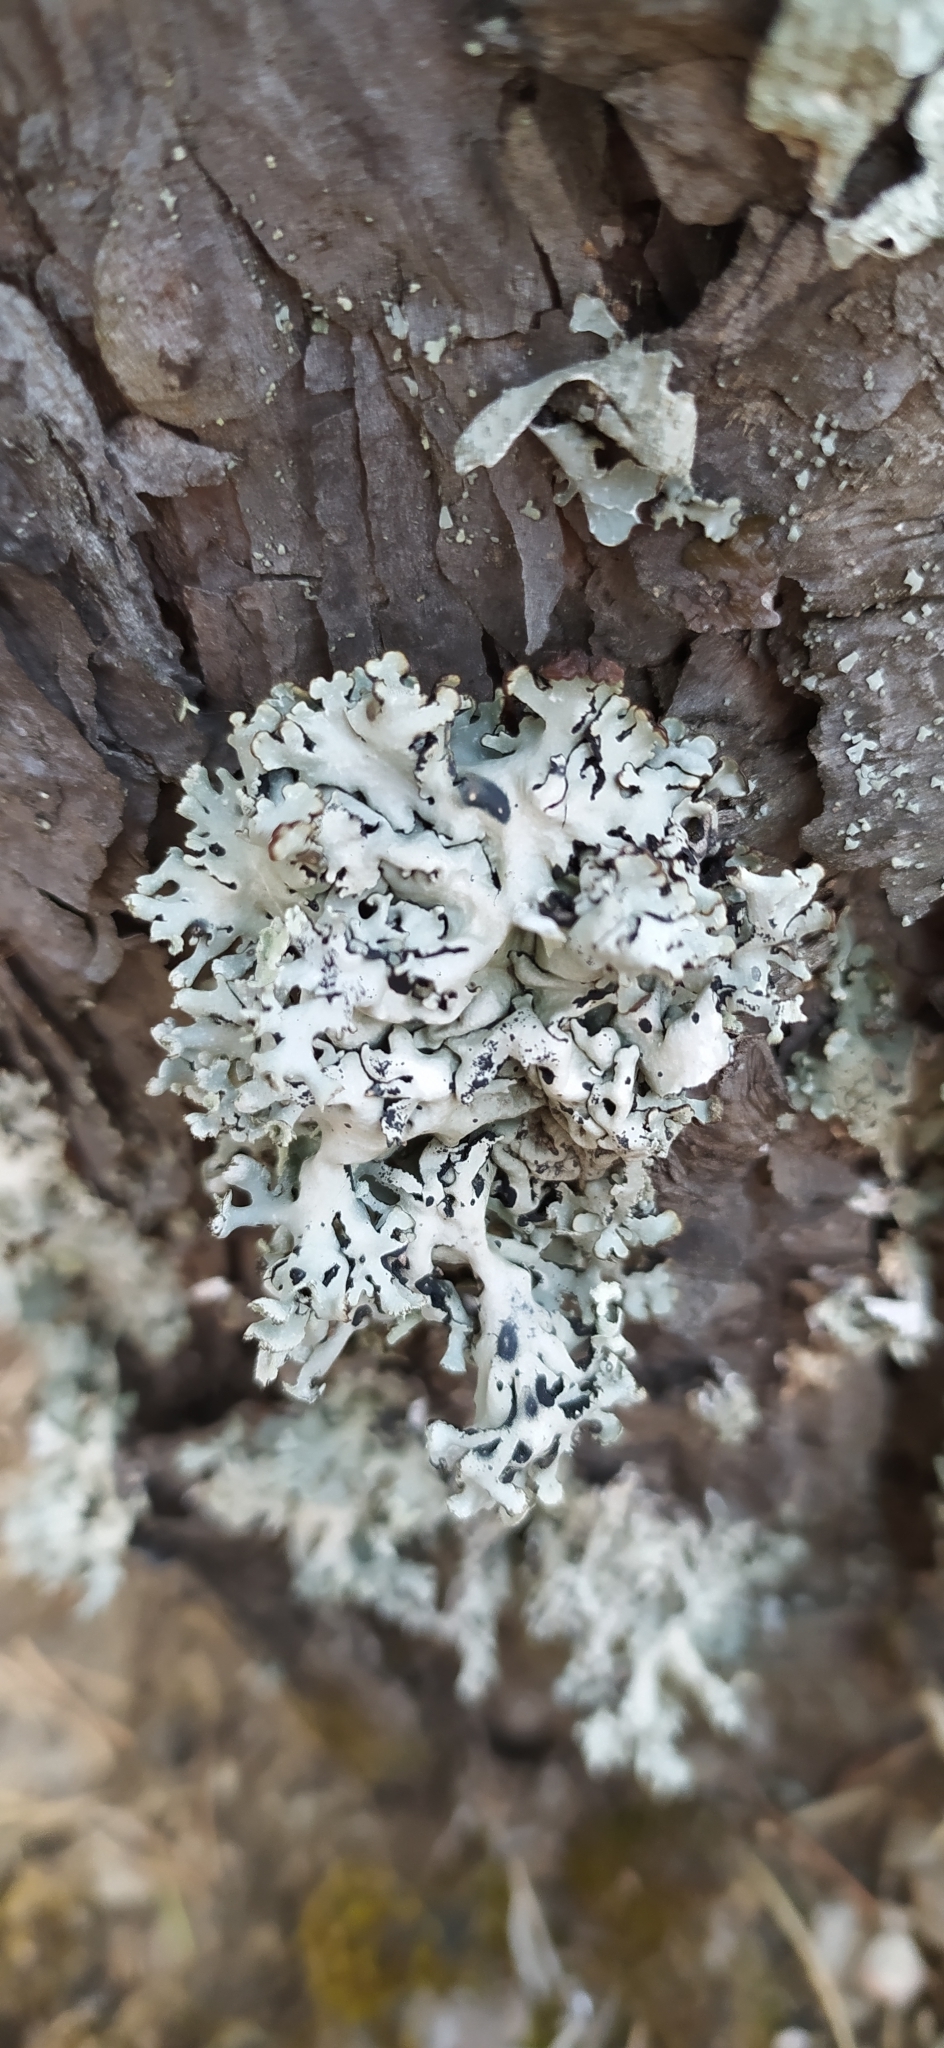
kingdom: Fungi
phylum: Ascomycota
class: Lecanoromycetes
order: Lecanorales
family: Parmeliaceae
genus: Hypogymnia
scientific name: Hypogymnia physodes
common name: Dark crottle
